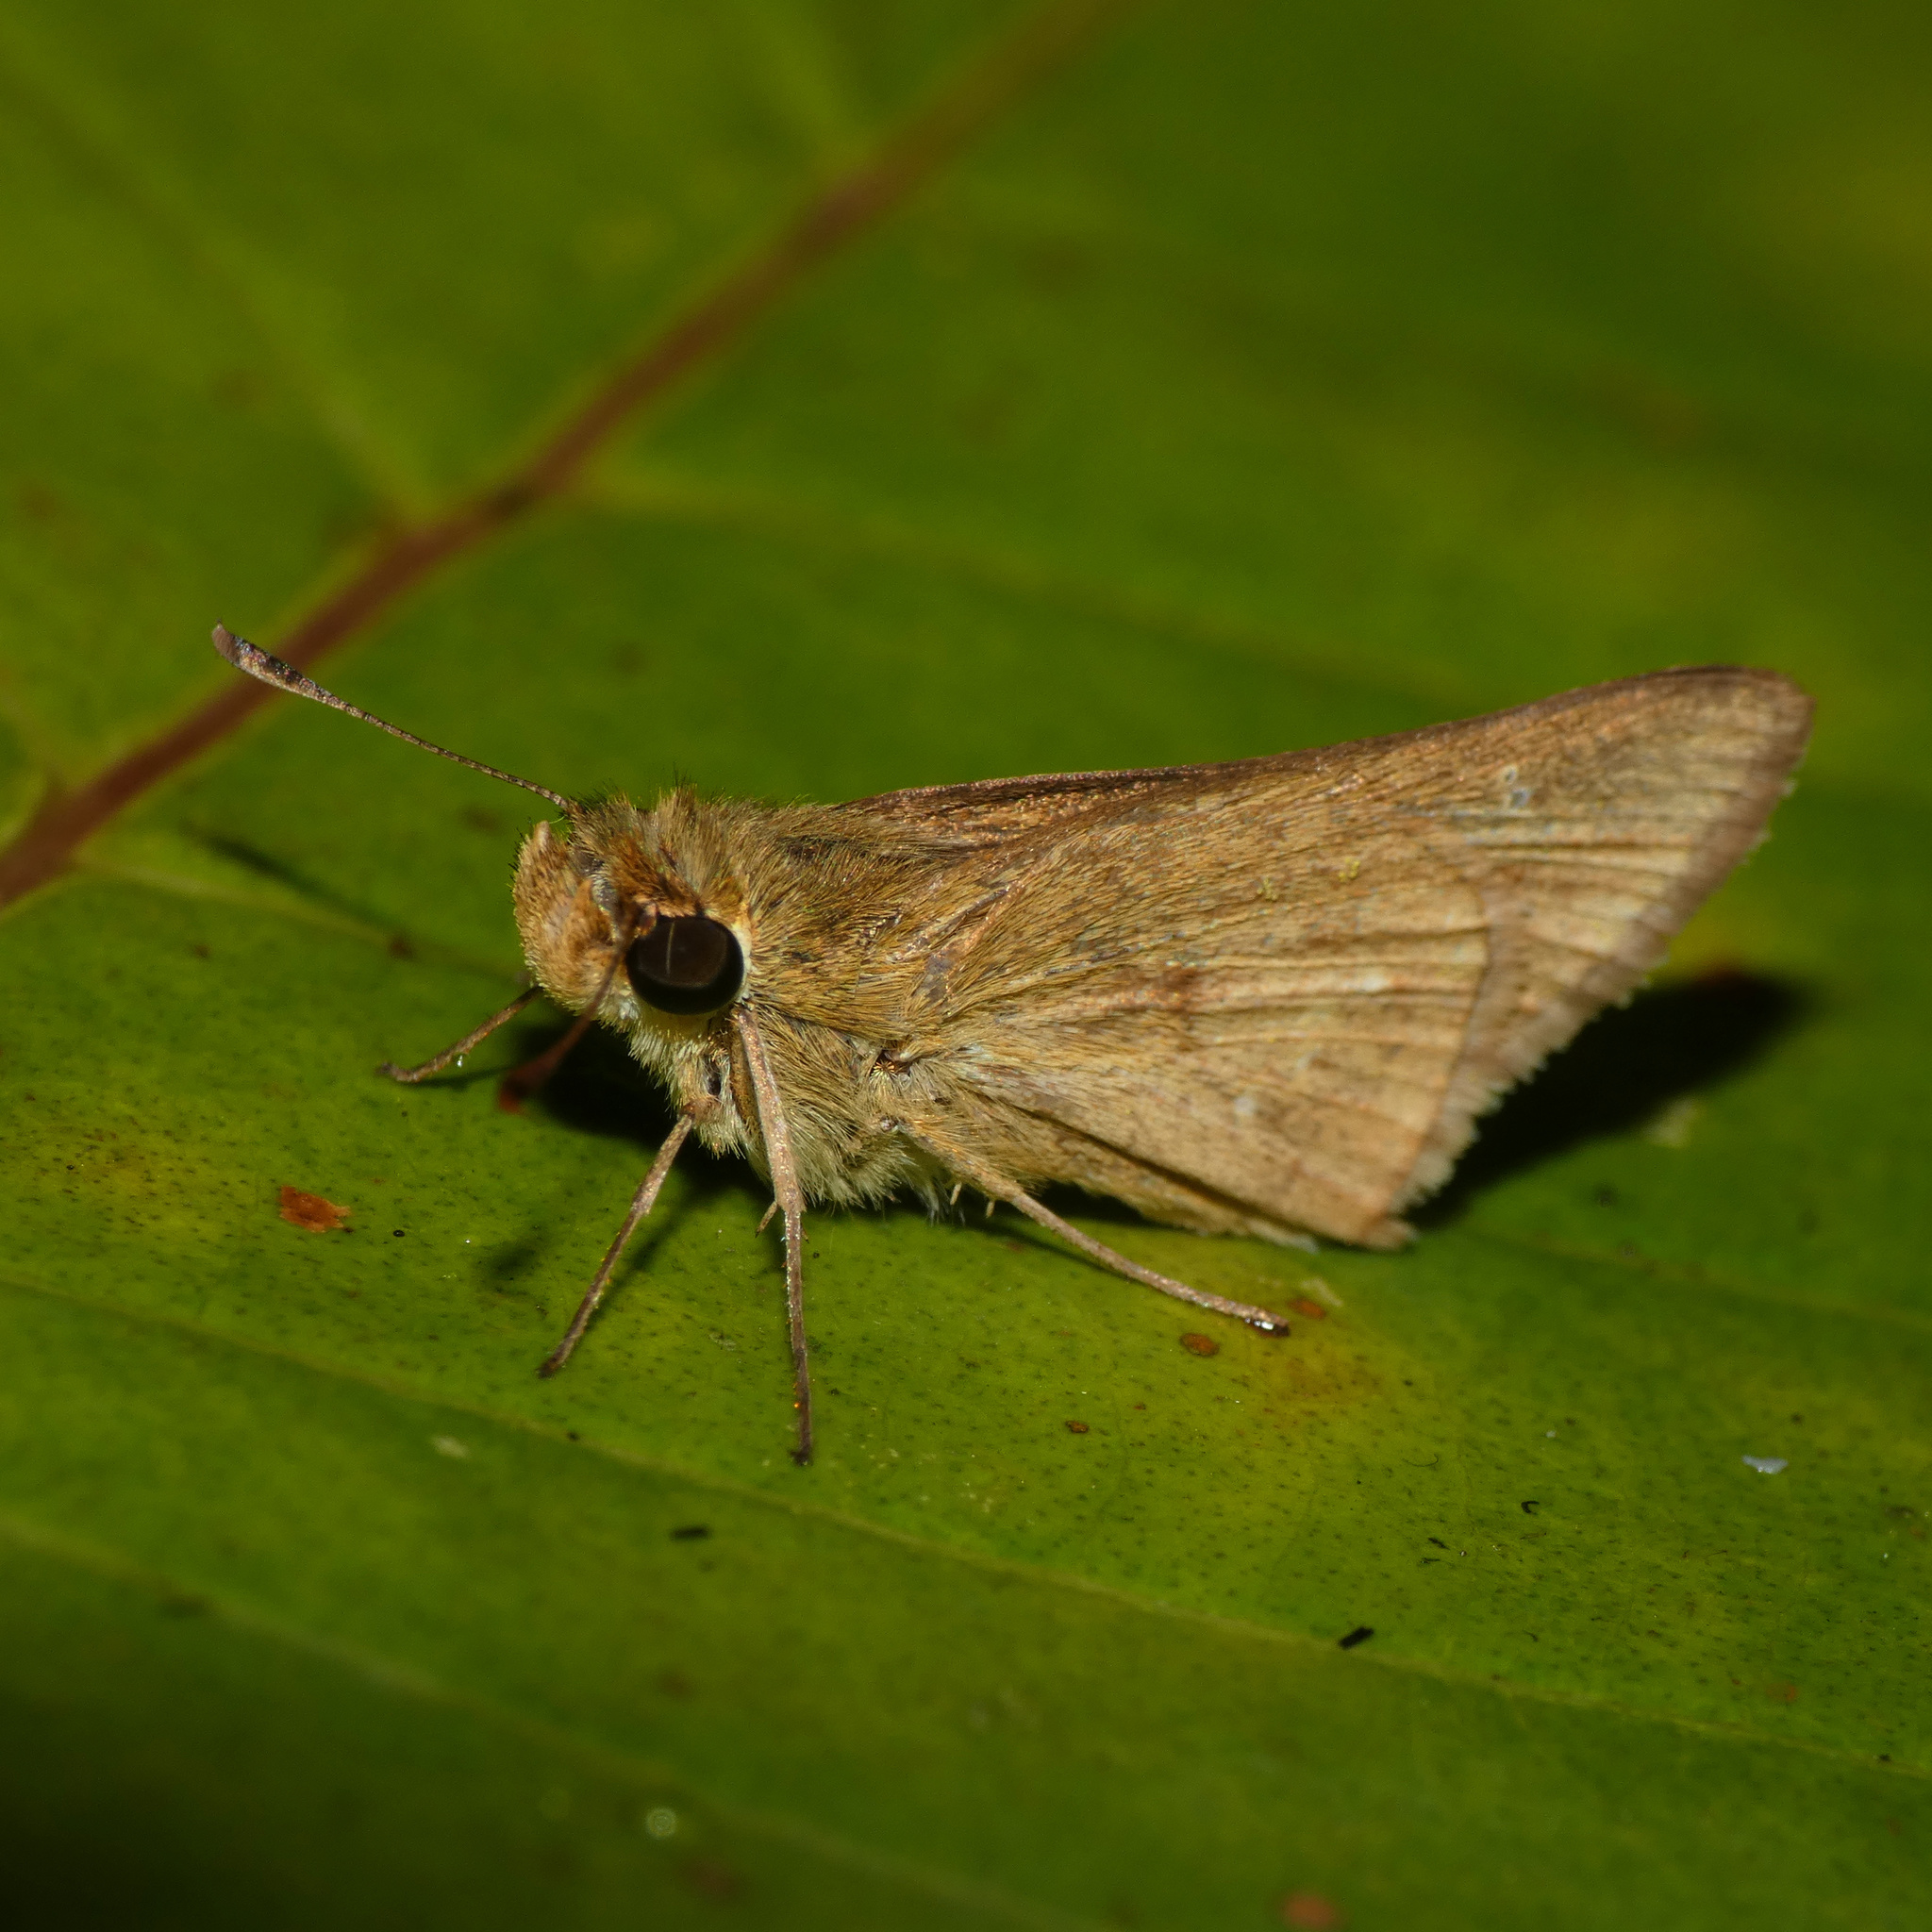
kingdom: Animalia
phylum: Arthropoda
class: Insecta
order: Lepidoptera
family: Hesperiidae
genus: Parnara
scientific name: Parnara naso
